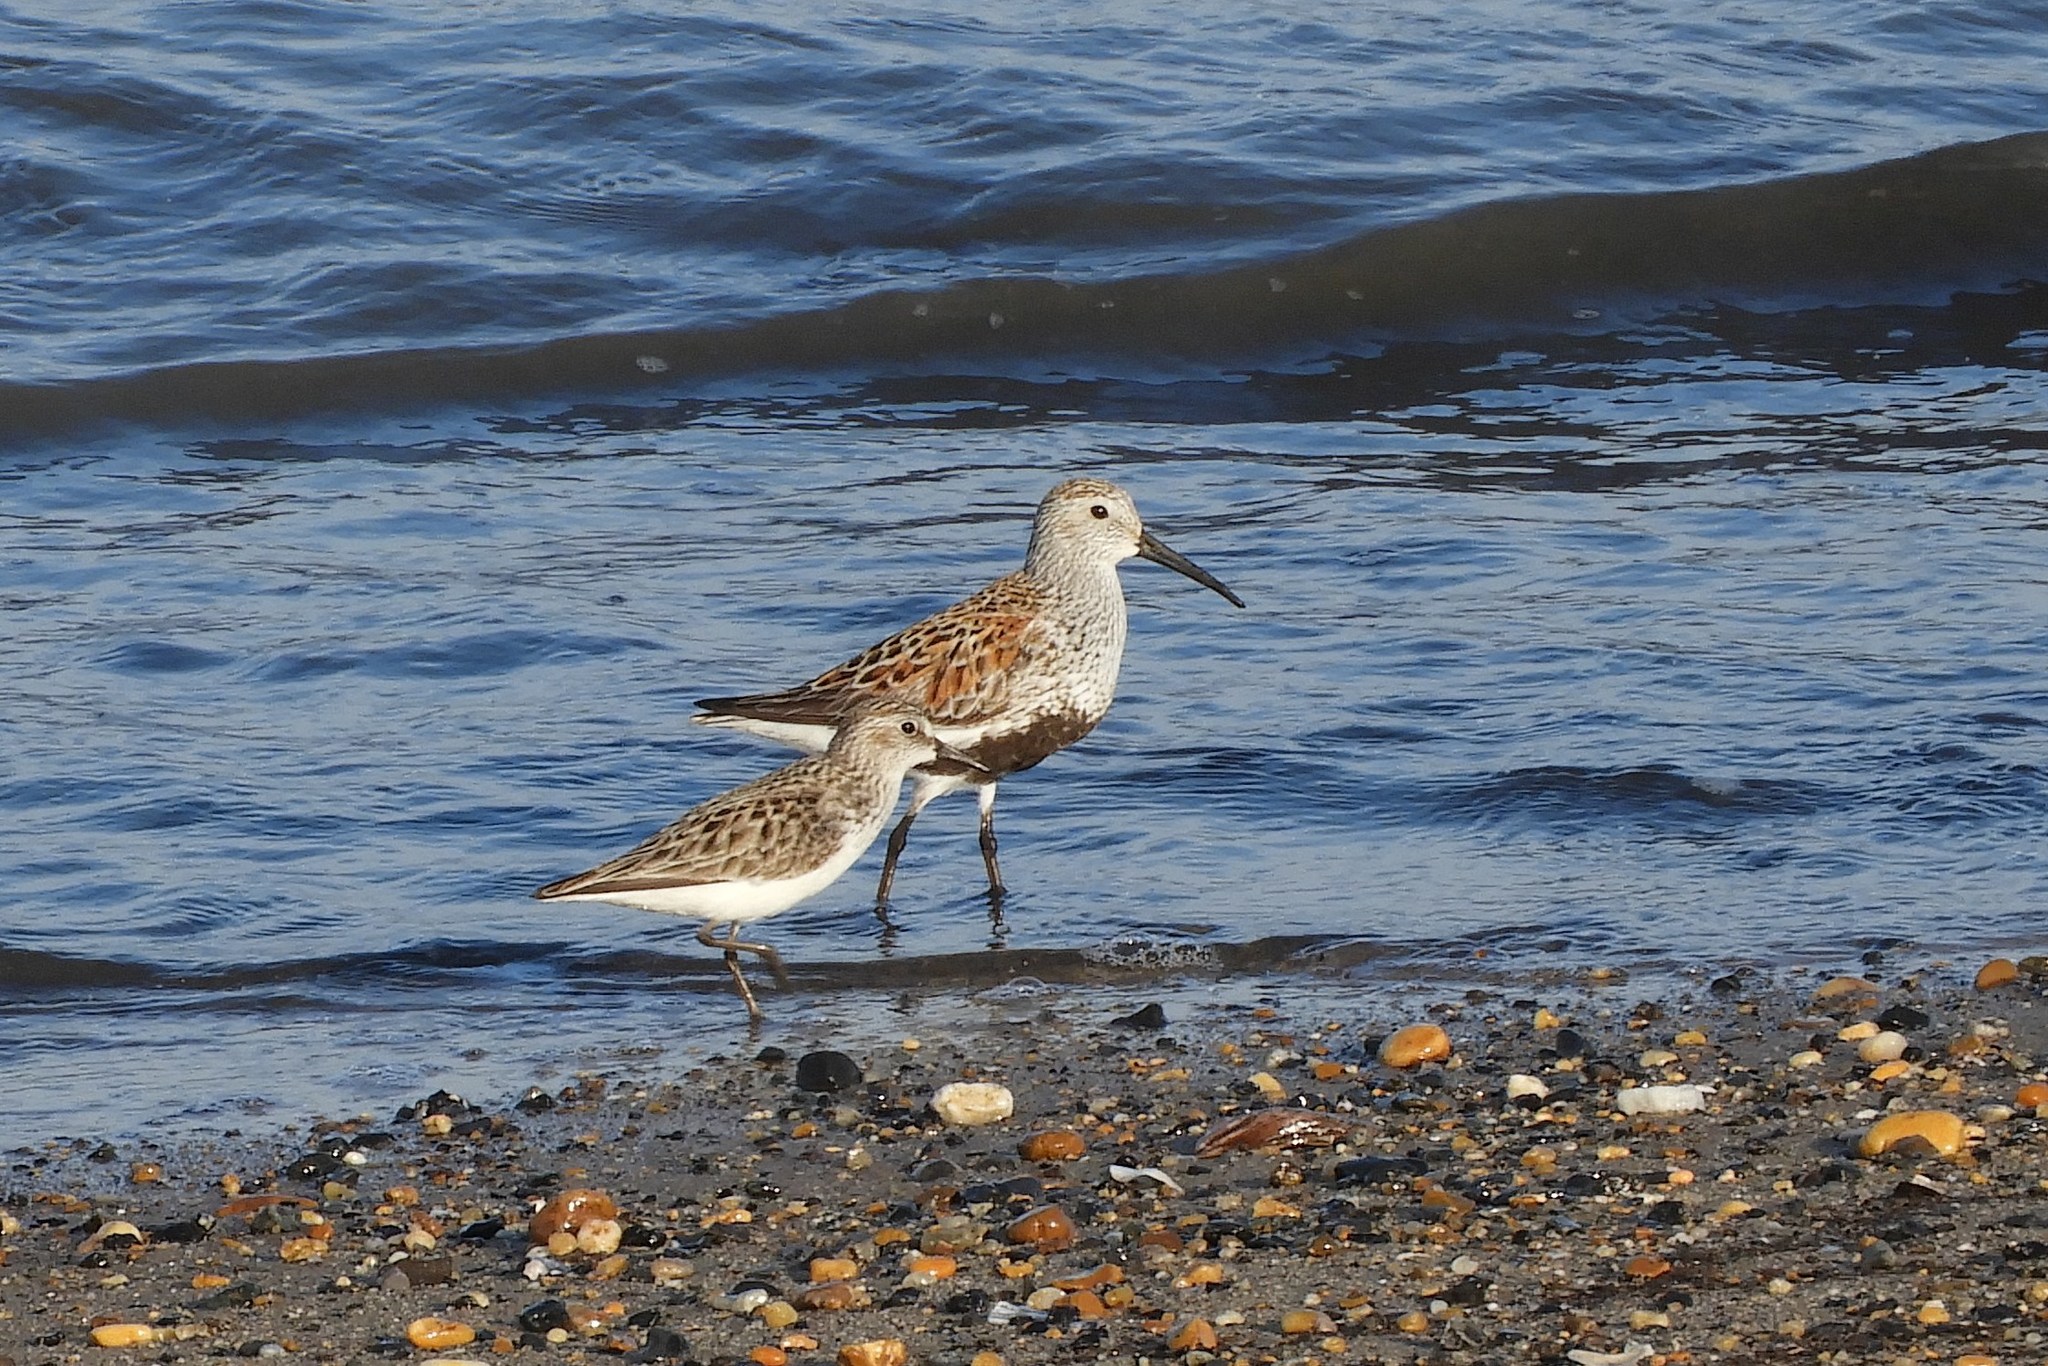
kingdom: Animalia
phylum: Chordata
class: Aves
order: Charadriiformes
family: Scolopacidae
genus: Calidris
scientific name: Calidris alpina
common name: Dunlin
